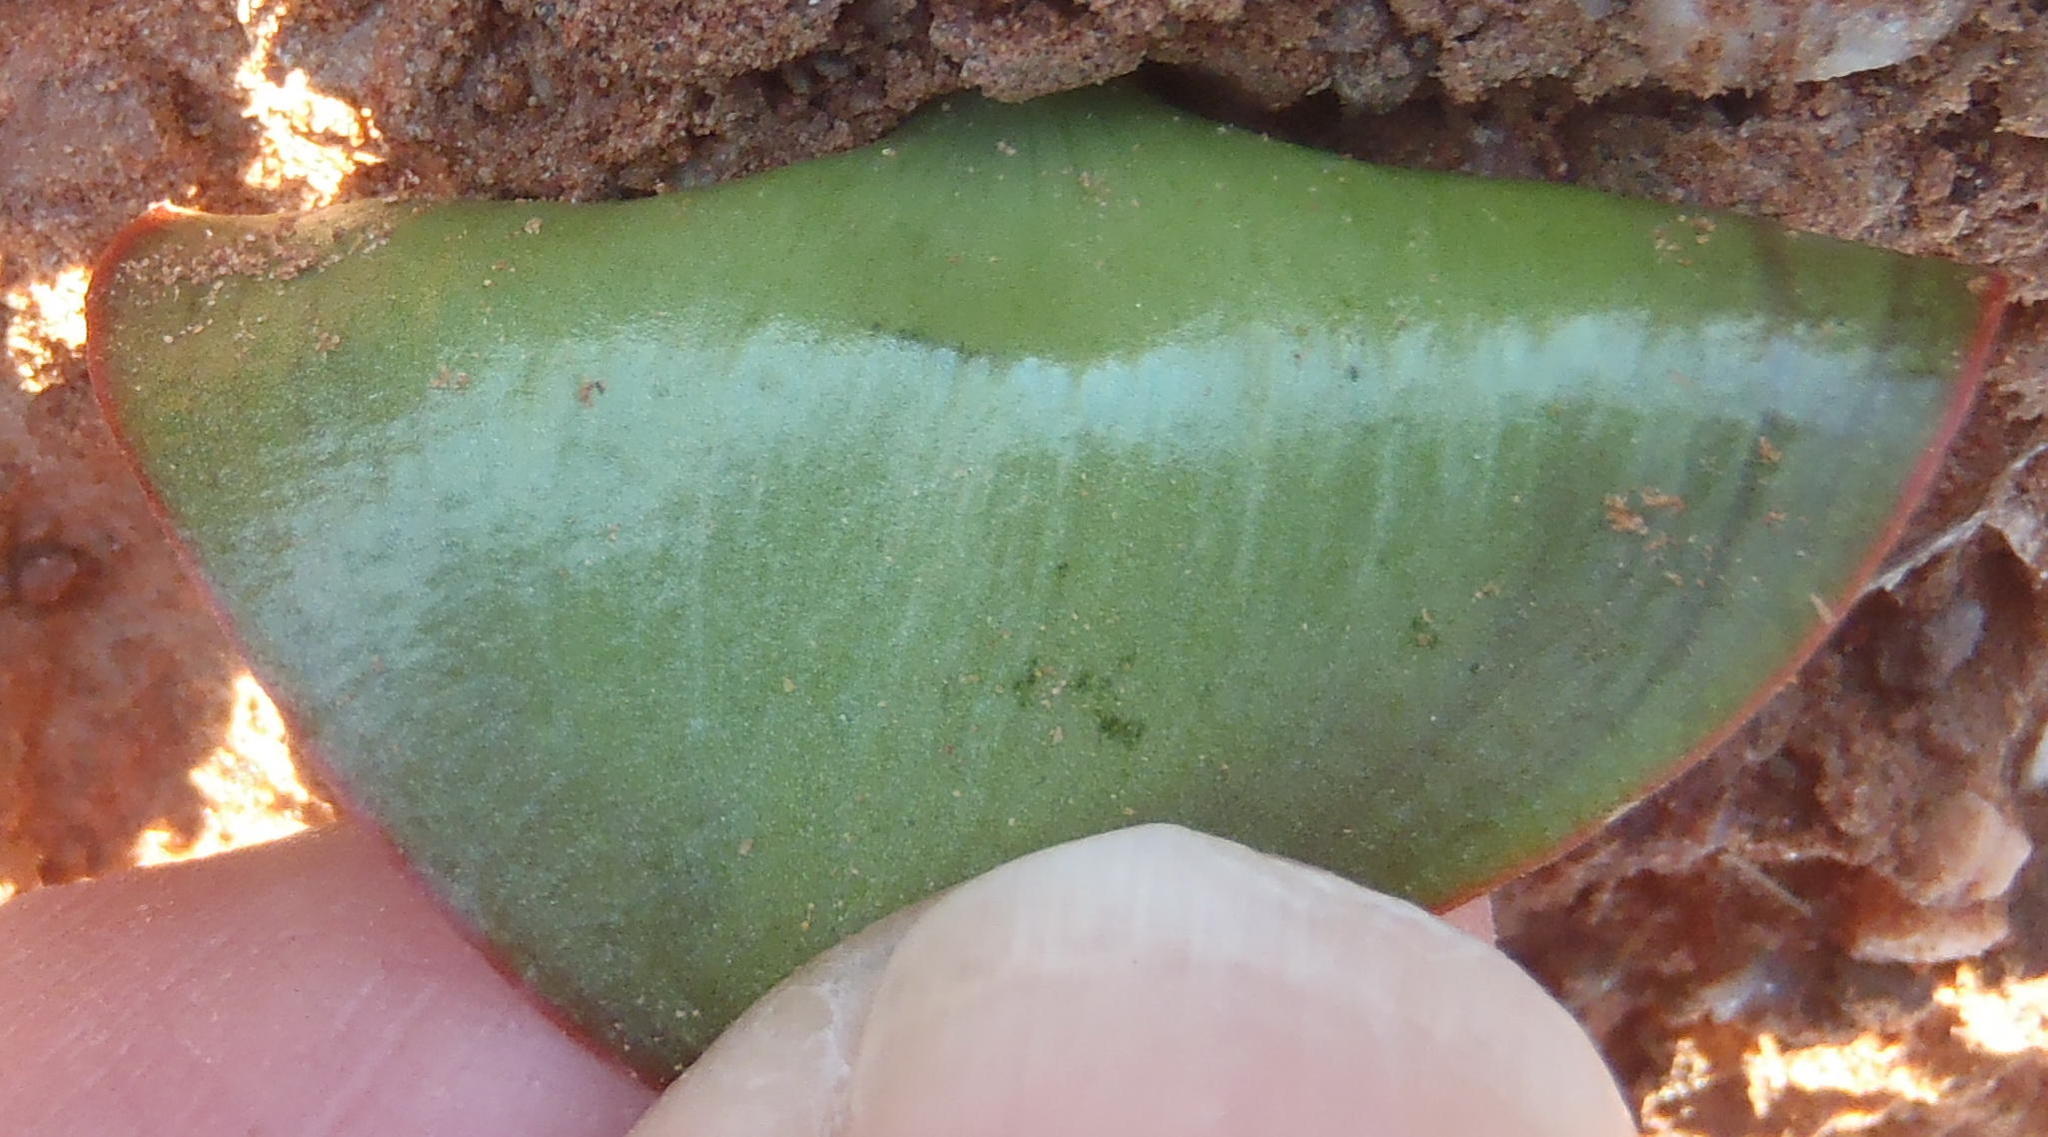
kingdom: Plantae
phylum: Tracheophyta
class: Liliopsida
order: Asparagales
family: Asparagaceae
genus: Eriospermum
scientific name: Eriospermum breviscapum
